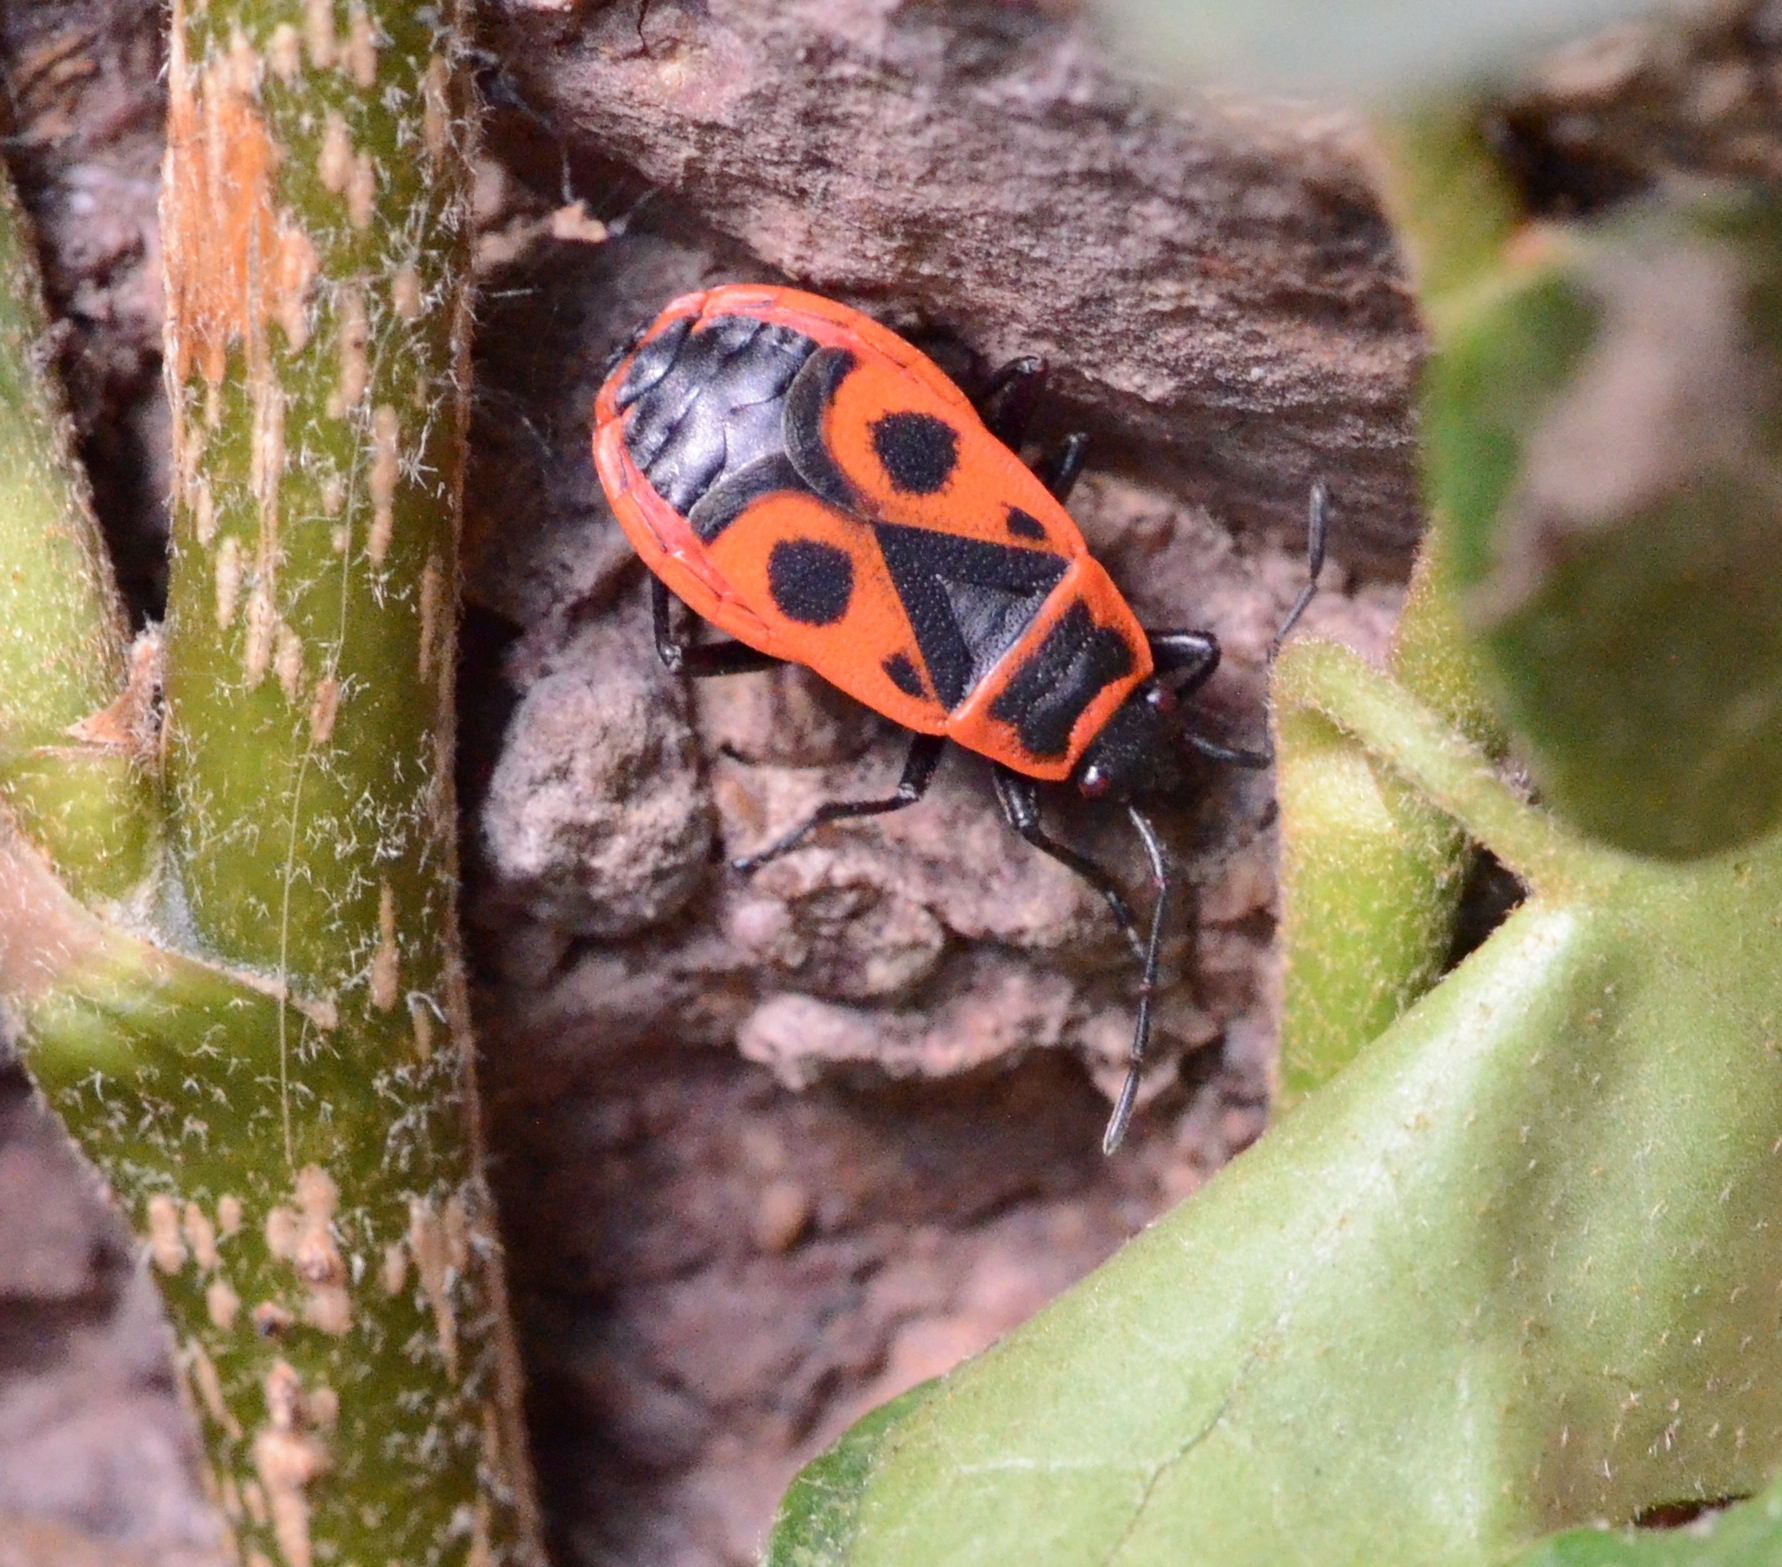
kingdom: Animalia
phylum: Arthropoda
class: Insecta
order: Hemiptera
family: Pyrrhocoridae
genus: Pyrrhocoris
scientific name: Pyrrhocoris apterus
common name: Firebug
